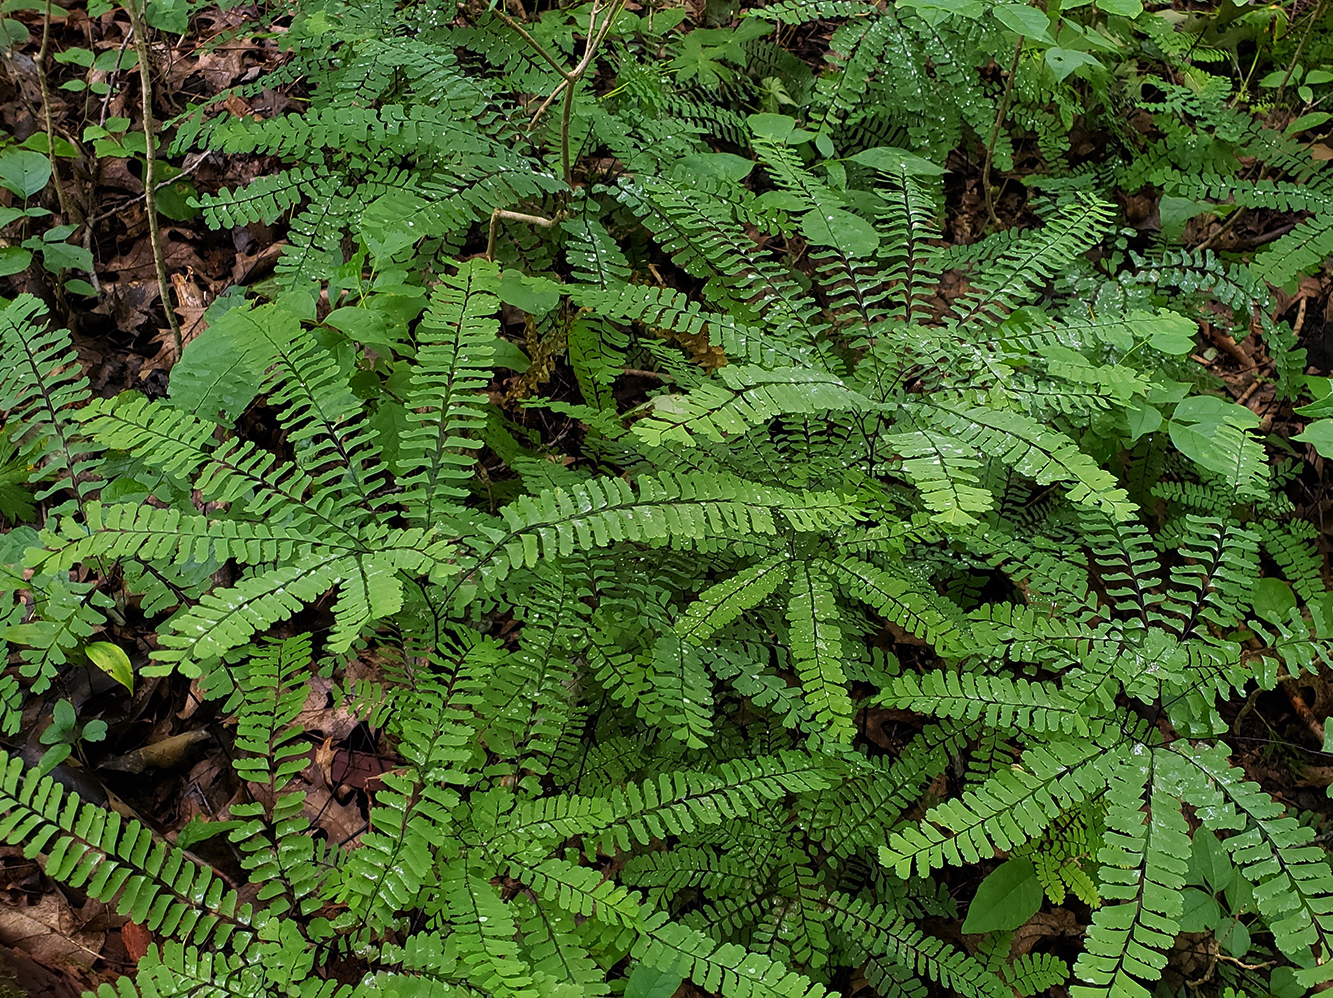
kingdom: Plantae
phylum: Tracheophyta
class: Polypodiopsida
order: Polypodiales
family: Pteridaceae
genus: Adiantum
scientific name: Adiantum pedatum
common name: Five-finger fern
